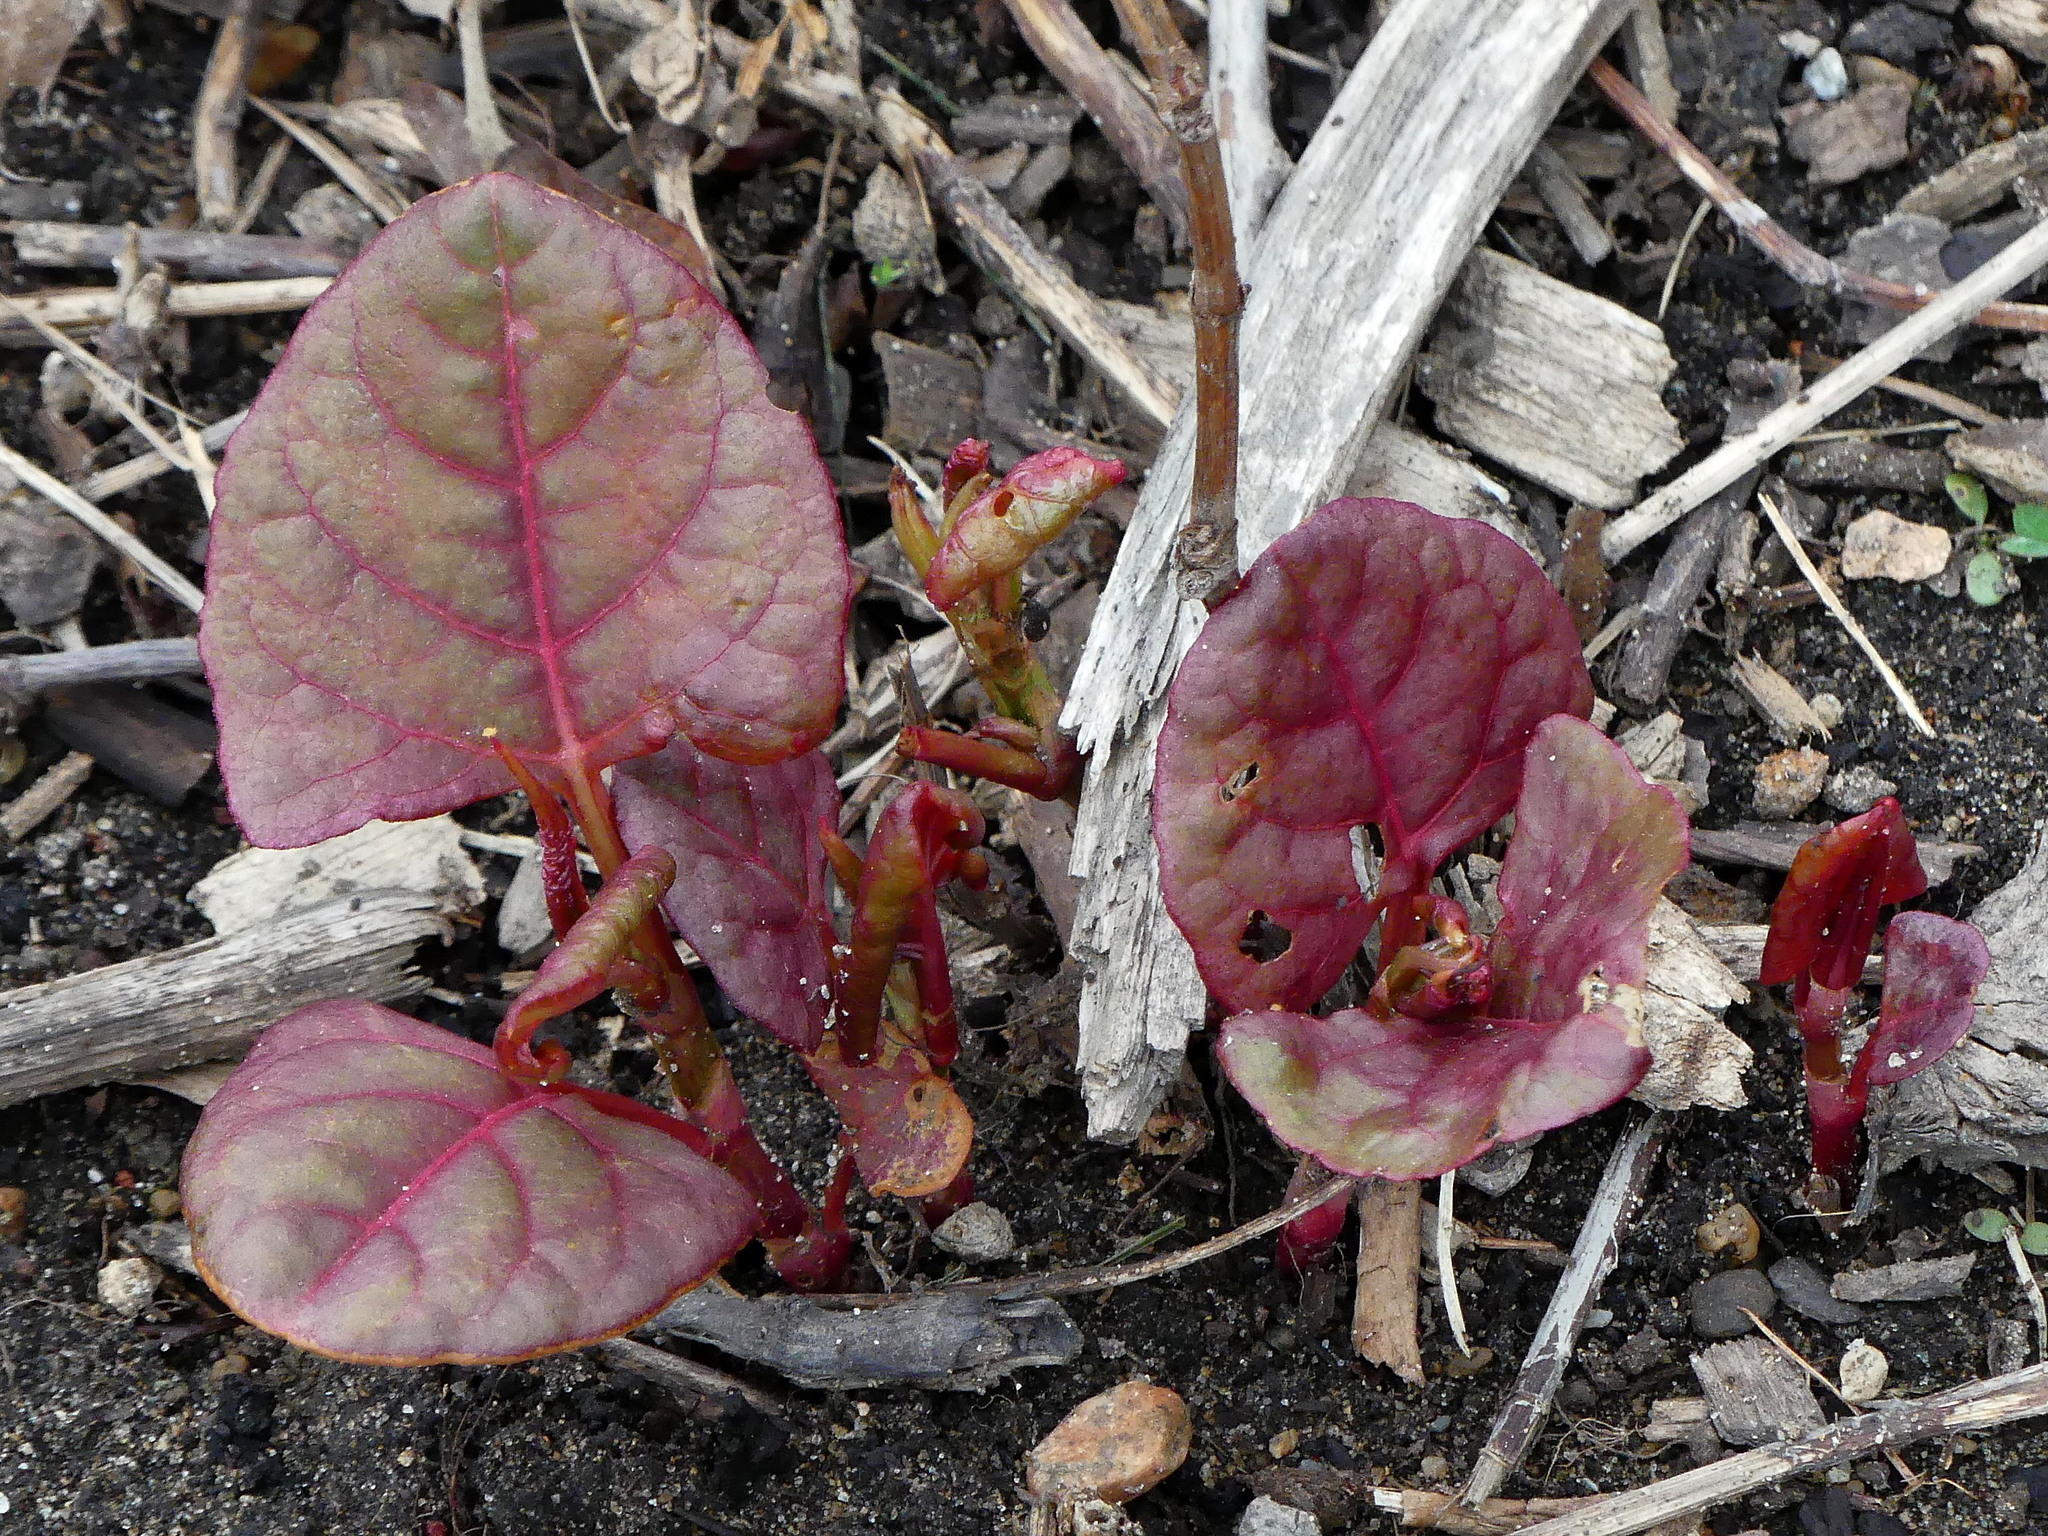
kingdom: Plantae
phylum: Tracheophyta
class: Magnoliopsida
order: Caryophyllales
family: Polygonaceae
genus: Reynoutria
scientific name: Reynoutria japonica
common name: Japanese knotweed
